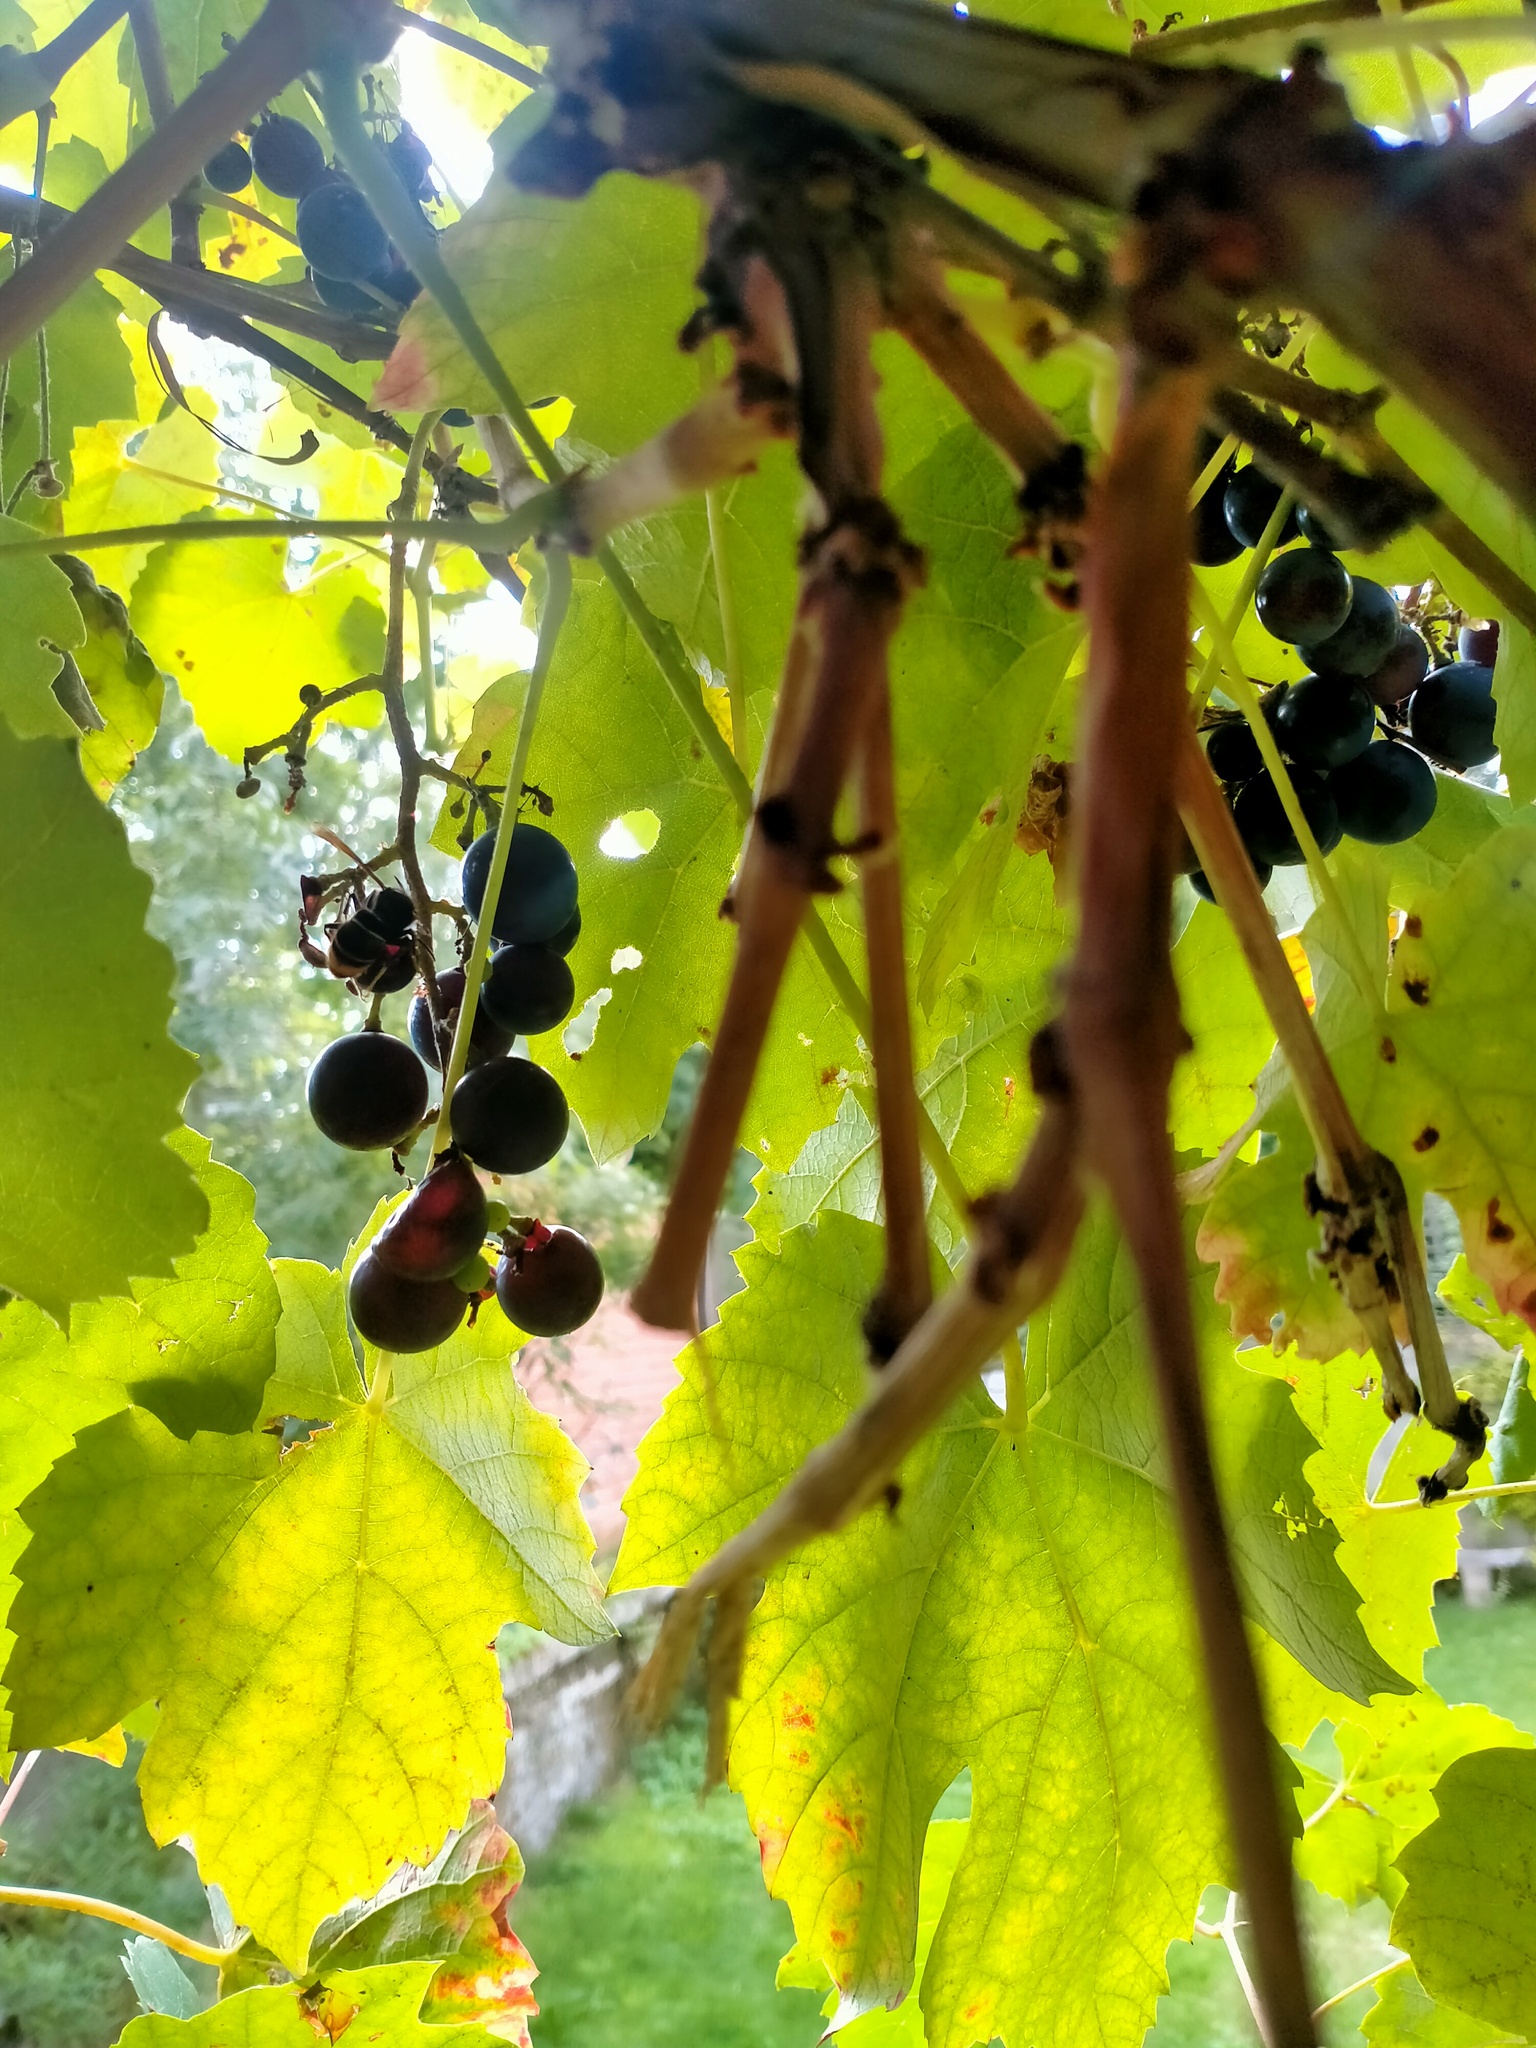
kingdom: Animalia
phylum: Arthropoda
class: Insecta
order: Hymenoptera
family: Vespidae
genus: Vespa
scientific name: Vespa velutina
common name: Asian hornet
